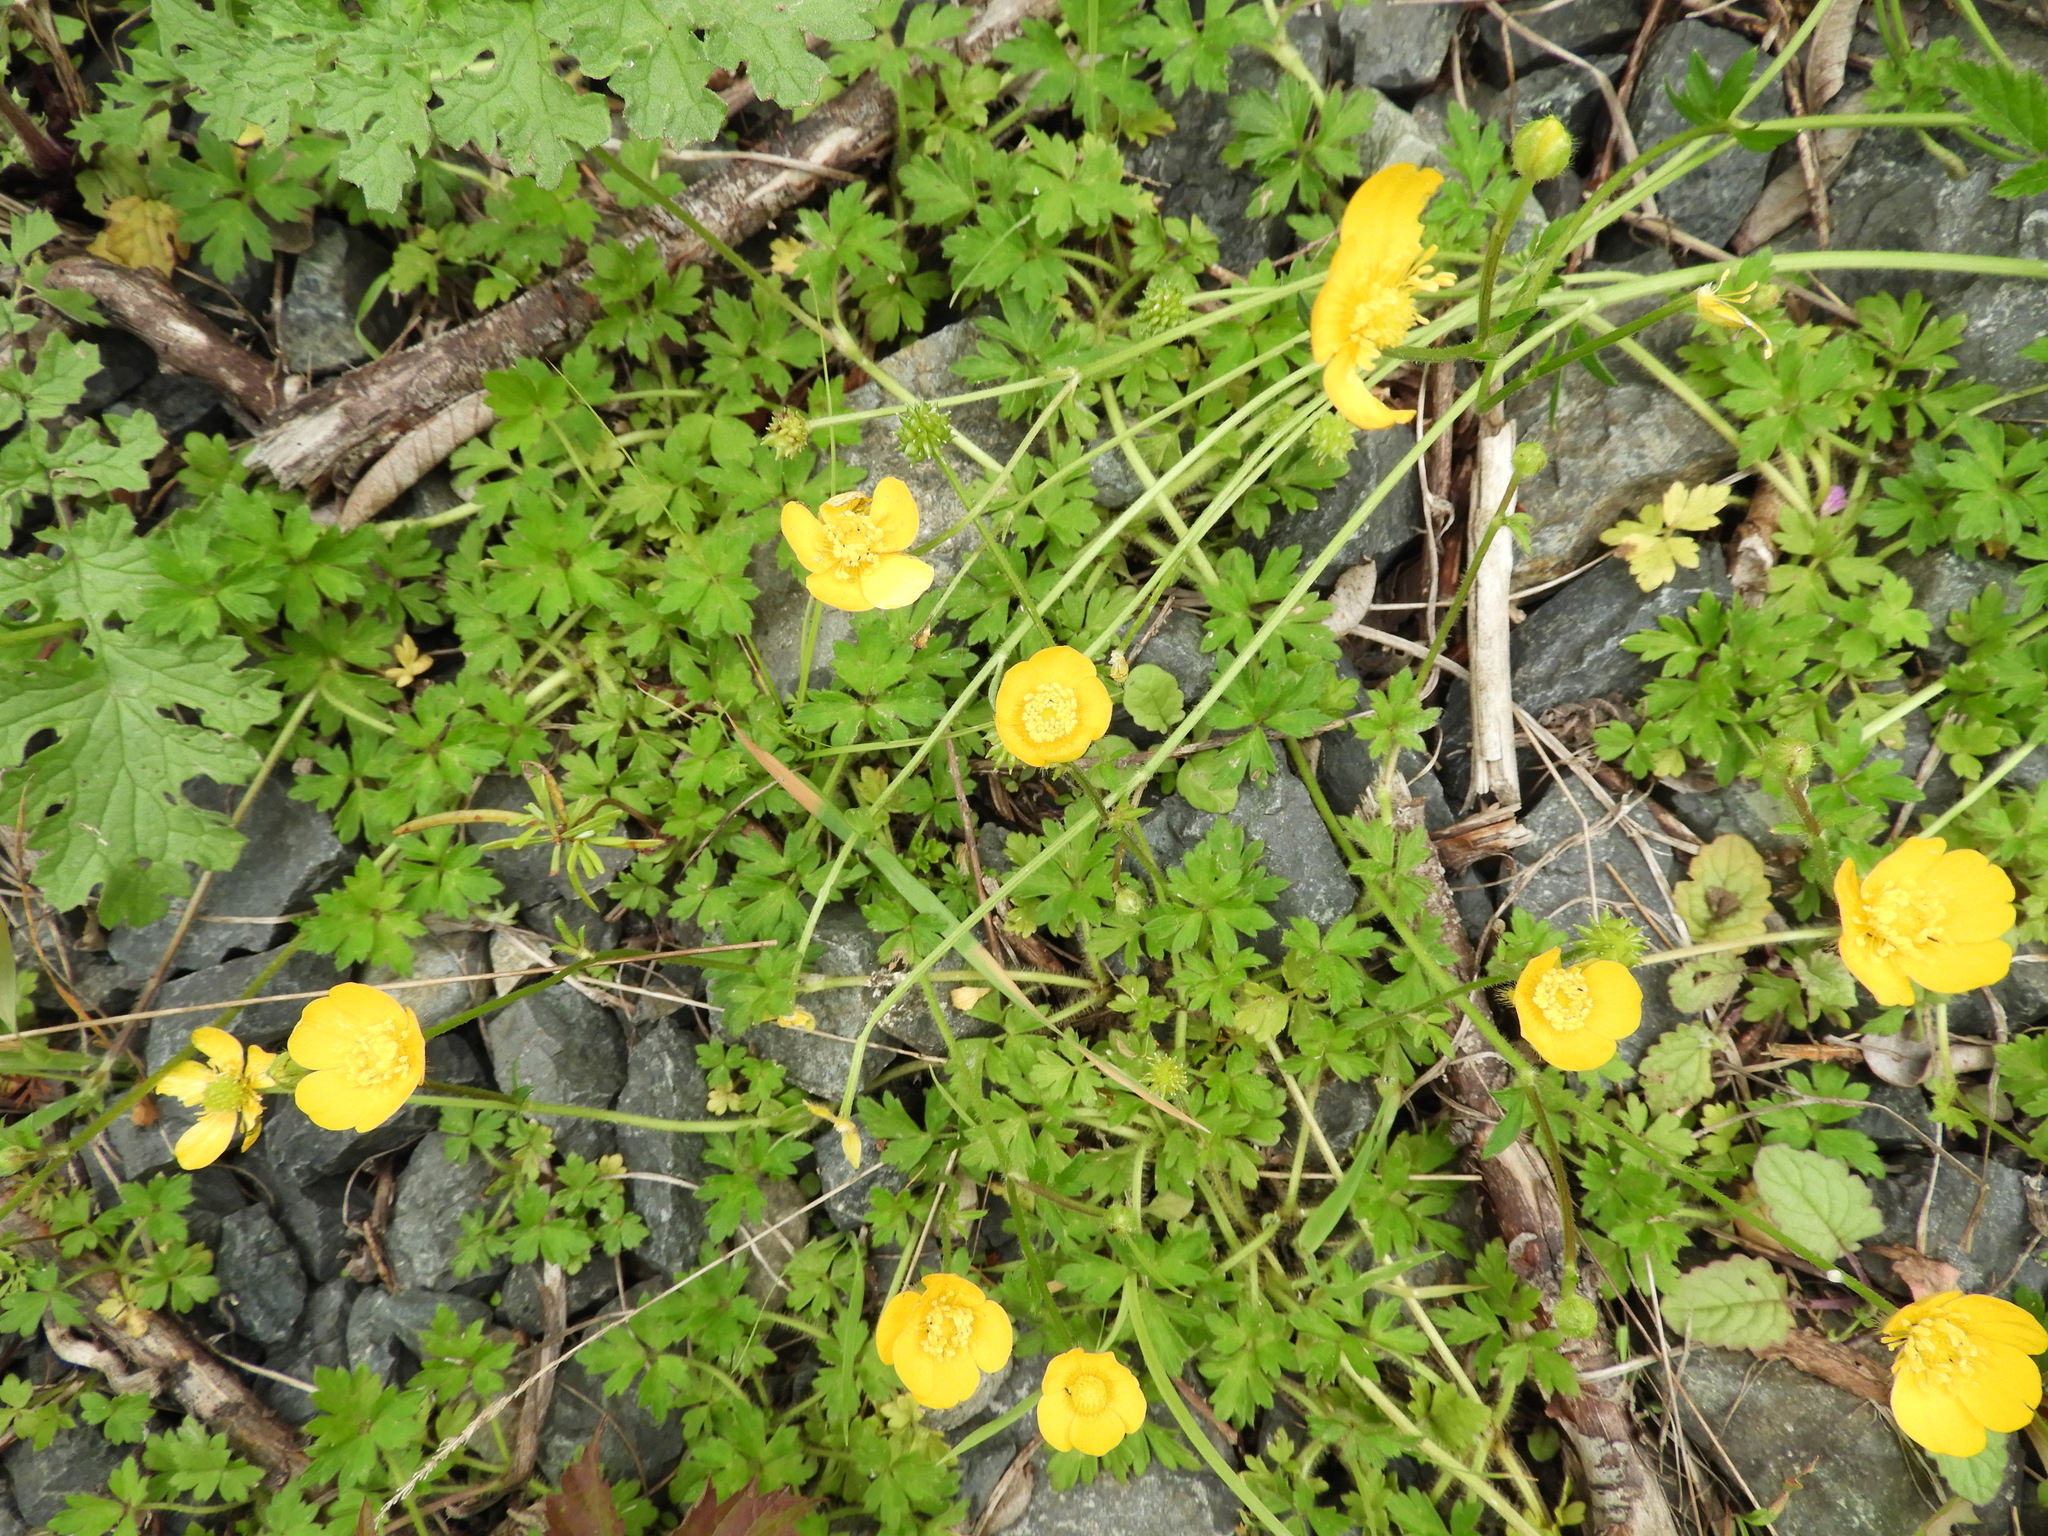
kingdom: Plantae
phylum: Tracheophyta
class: Magnoliopsida
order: Ranunculales
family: Ranunculaceae
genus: Ranunculus
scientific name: Ranunculus repens
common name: Creeping buttercup
